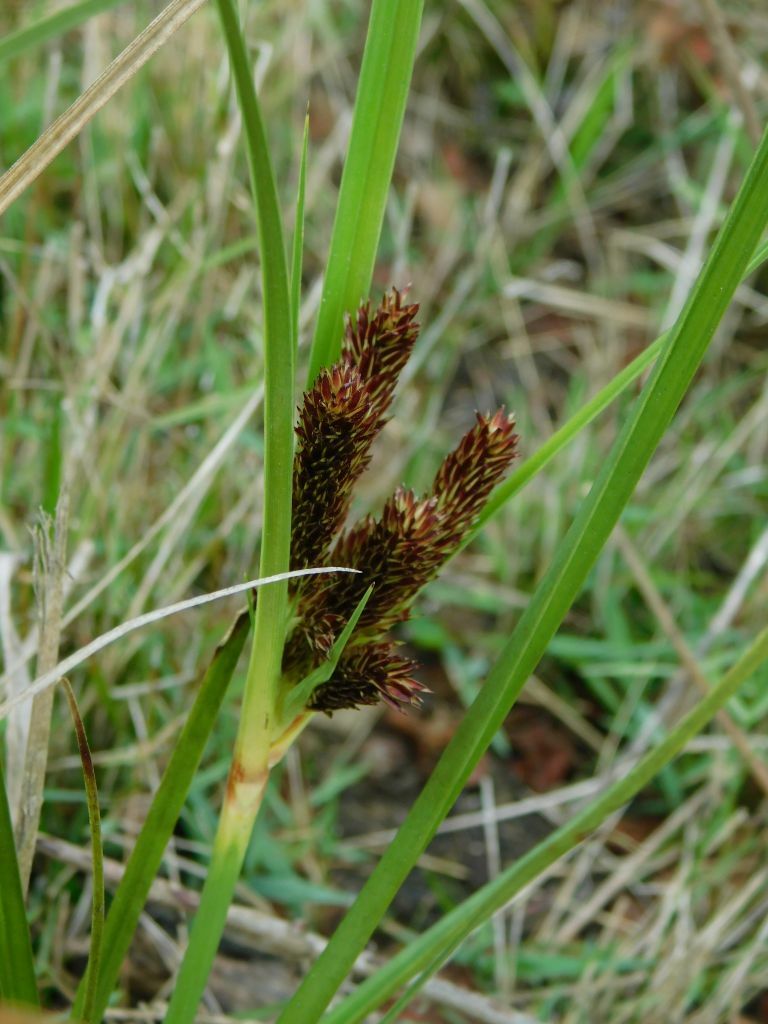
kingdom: Plantae
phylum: Tracheophyta
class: Liliopsida
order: Poales
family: Cyperaceae
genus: Cyperus
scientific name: Cyperus thunbergii
